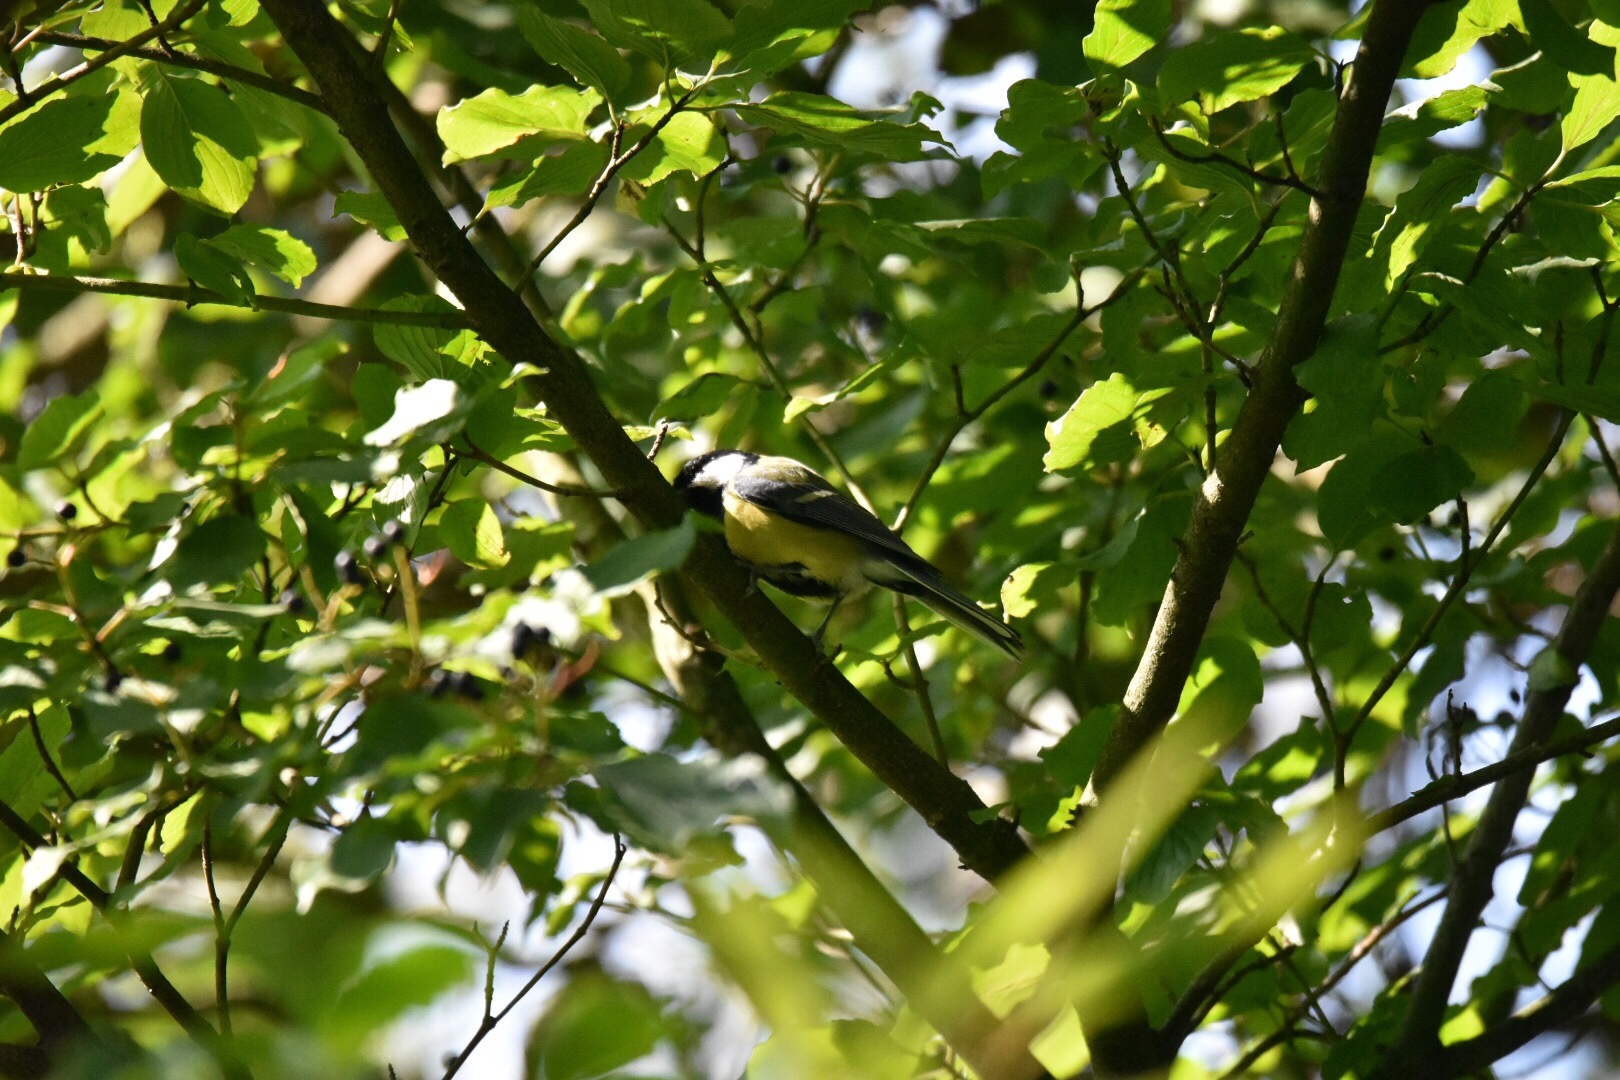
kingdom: Animalia
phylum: Chordata
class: Aves
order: Passeriformes
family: Paridae
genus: Parus
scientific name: Parus major
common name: Great tit
